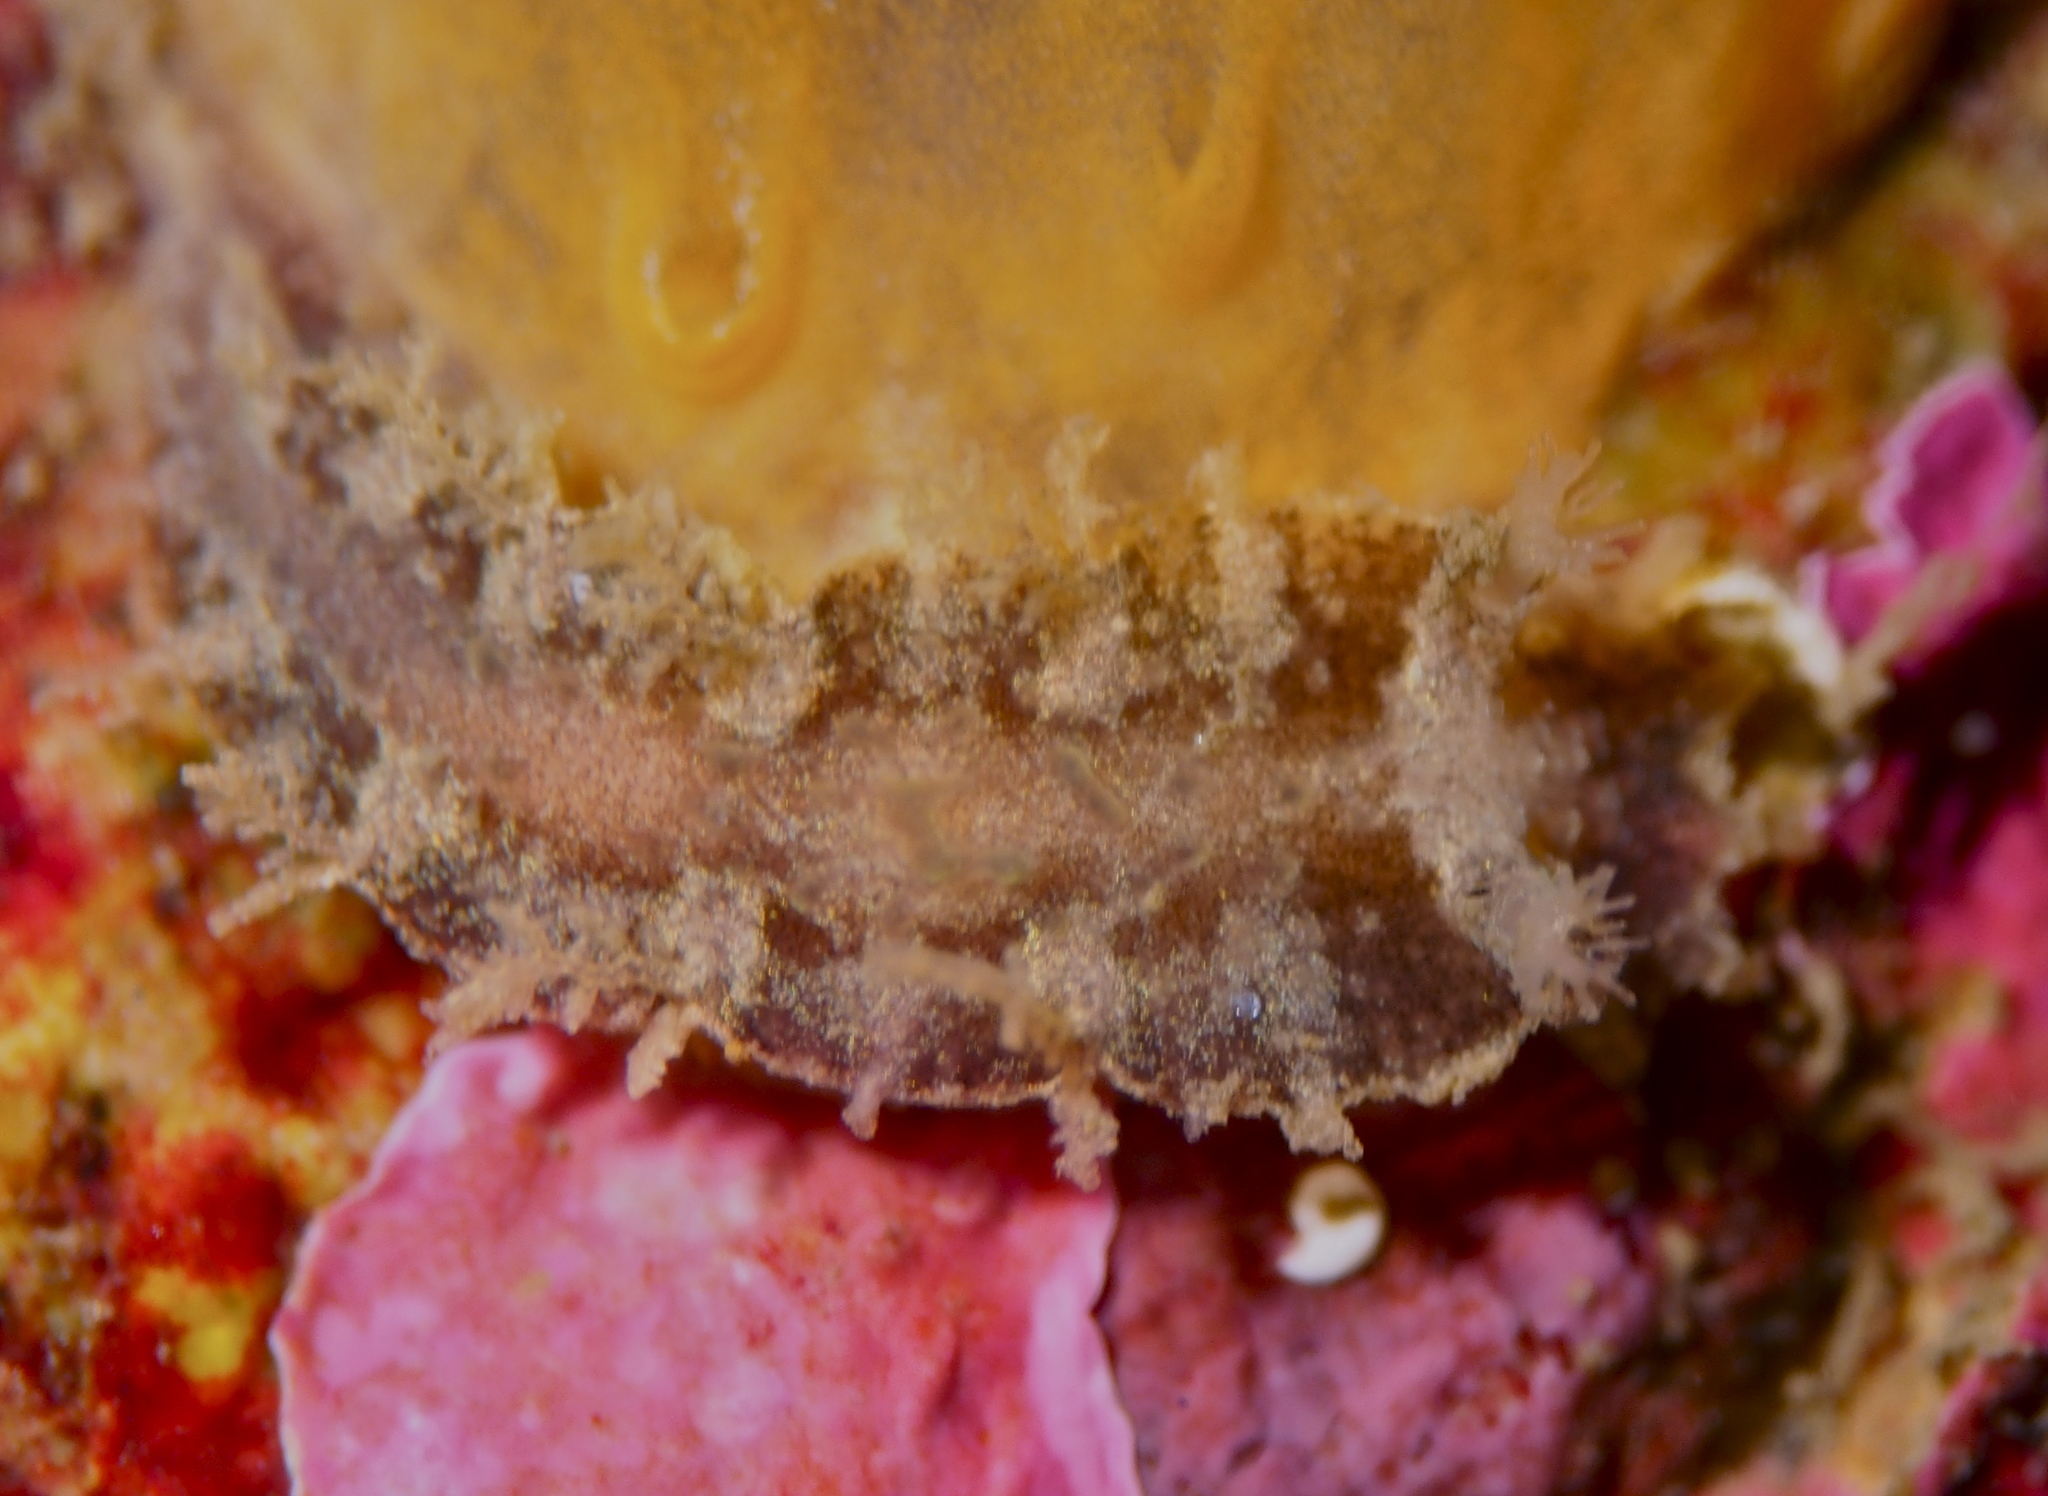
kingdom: Animalia
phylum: Mollusca
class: Gastropoda
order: Nudibranchia
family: Tritoniidae
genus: Duvaucelia
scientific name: Duvaucelia plebeia
